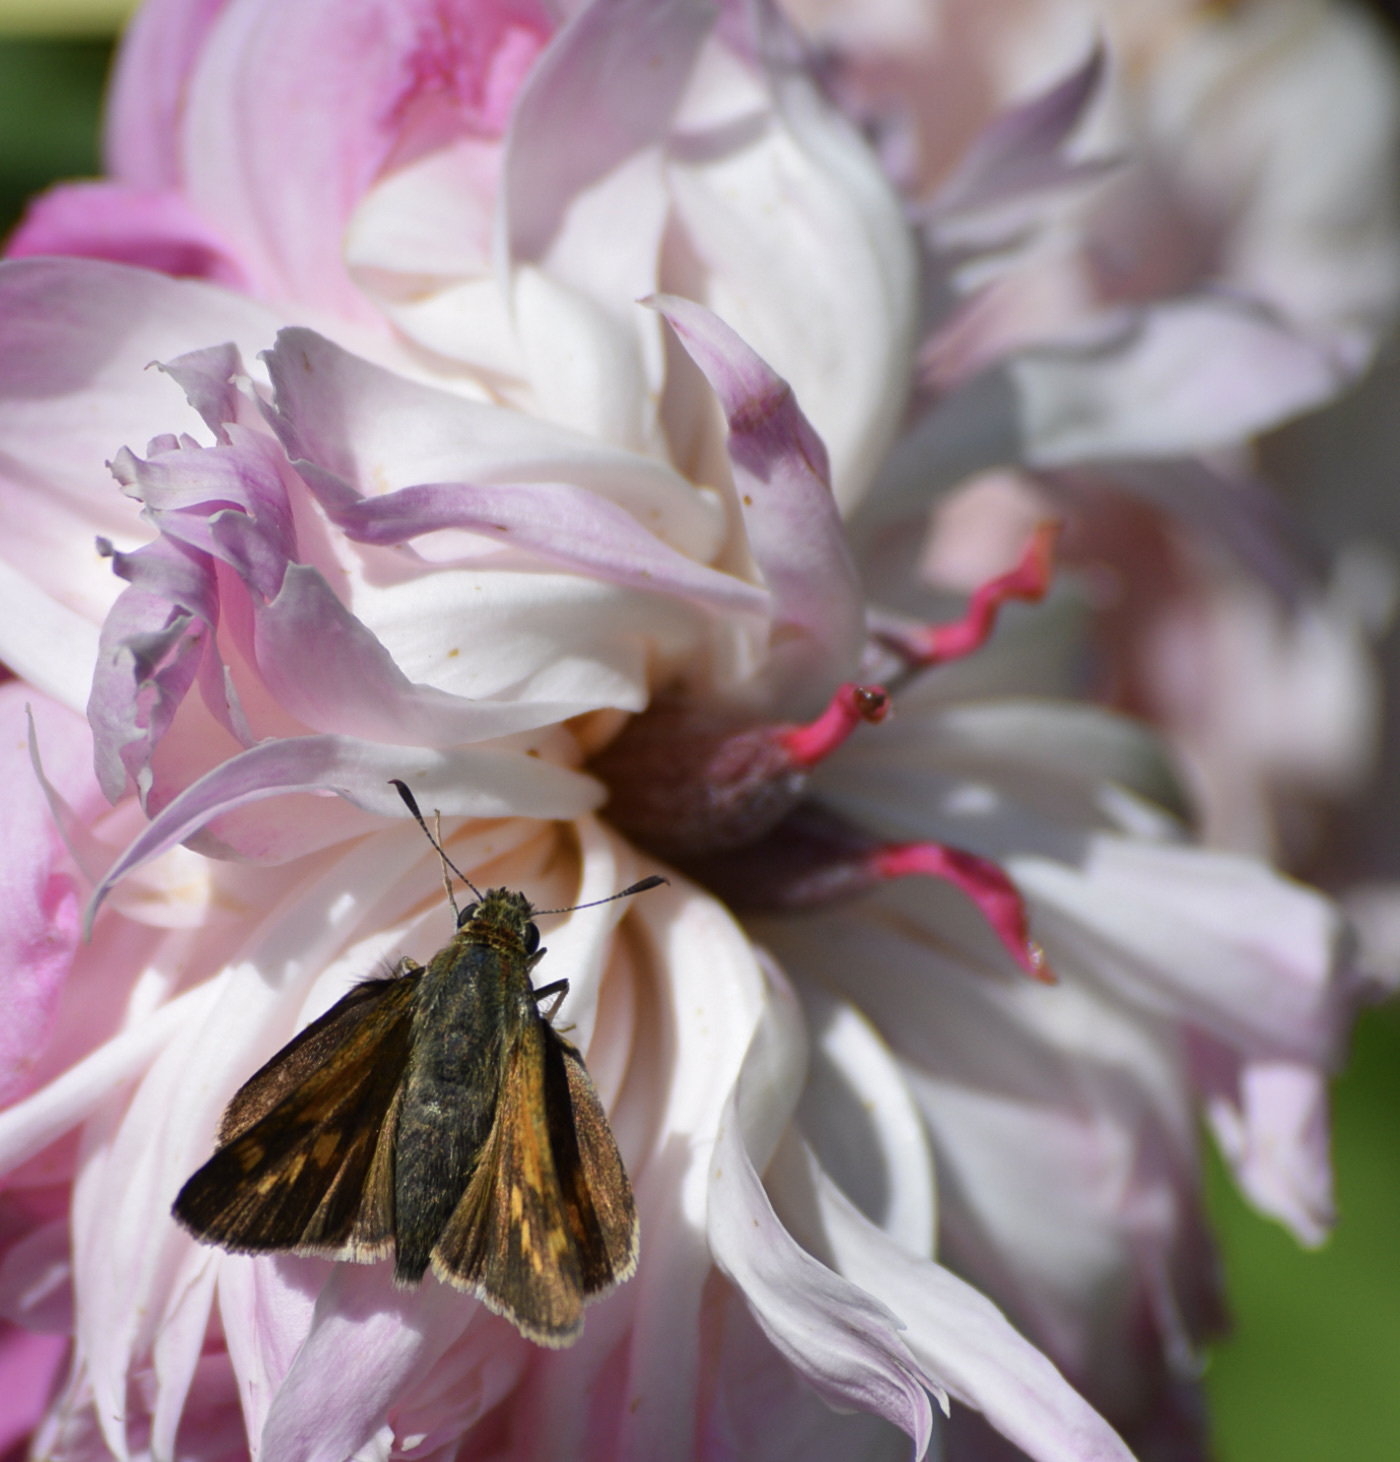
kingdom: Animalia
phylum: Arthropoda
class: Insecta
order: Lepidoptera
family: Hesperiidae
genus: Polites
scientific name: Polites mystic
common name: Long dash
